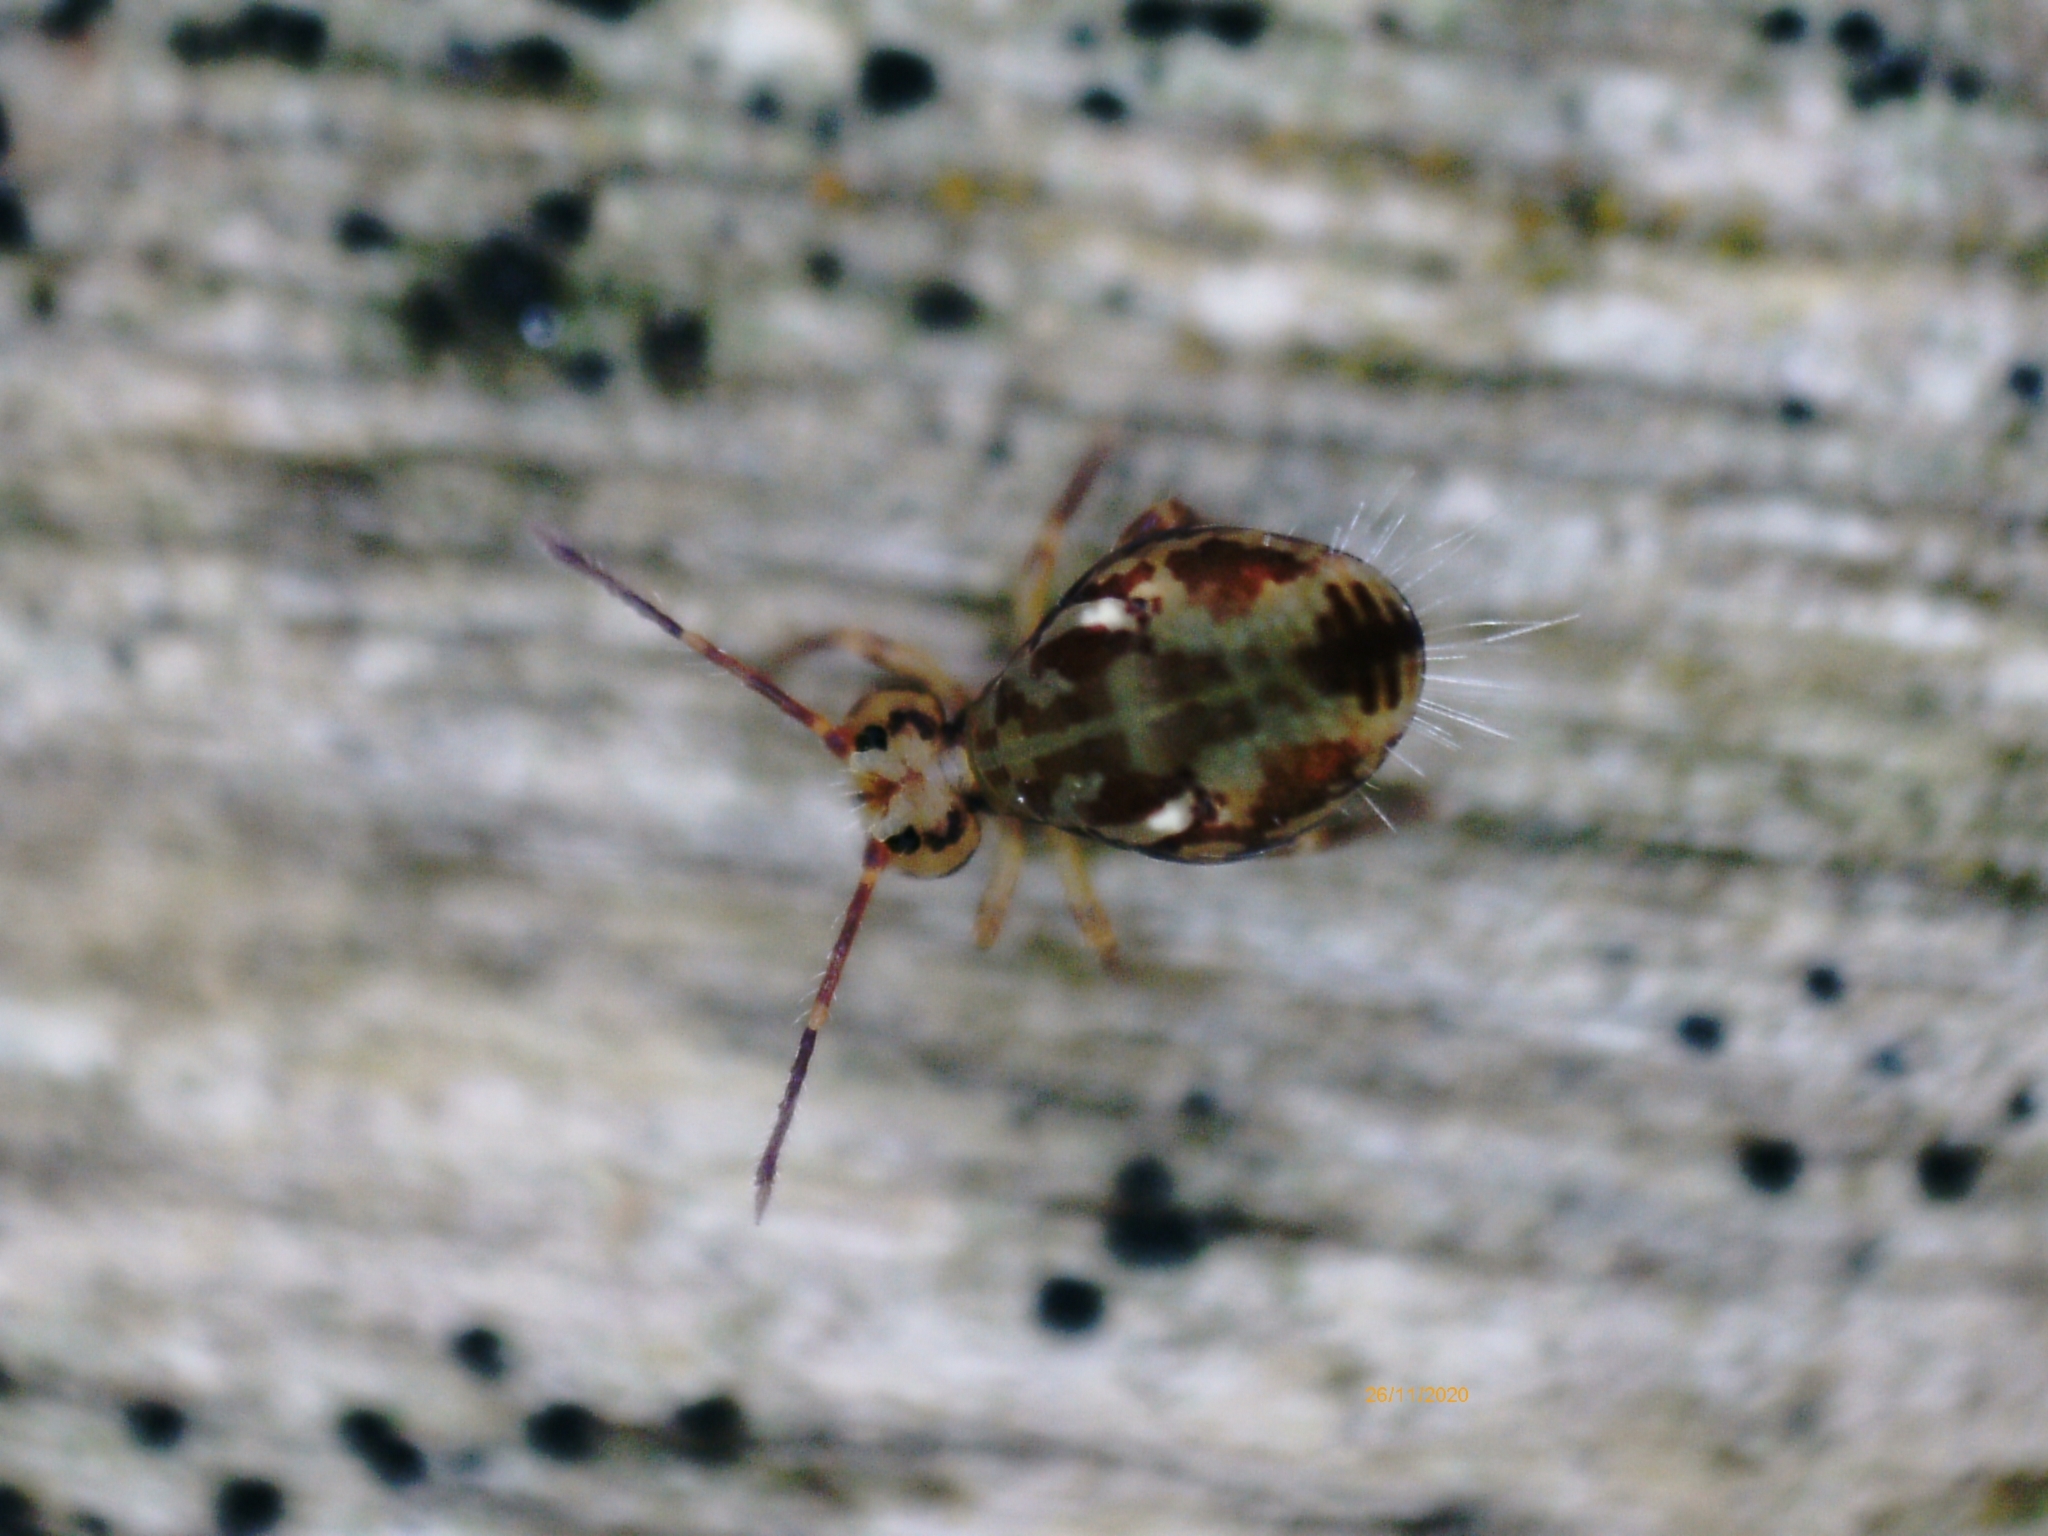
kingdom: Animalia
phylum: Arthropoda
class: Collembola
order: Symphypleona
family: Dicyrtomidae
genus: Dicyrtomina
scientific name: Dicyrtomina saundersi
